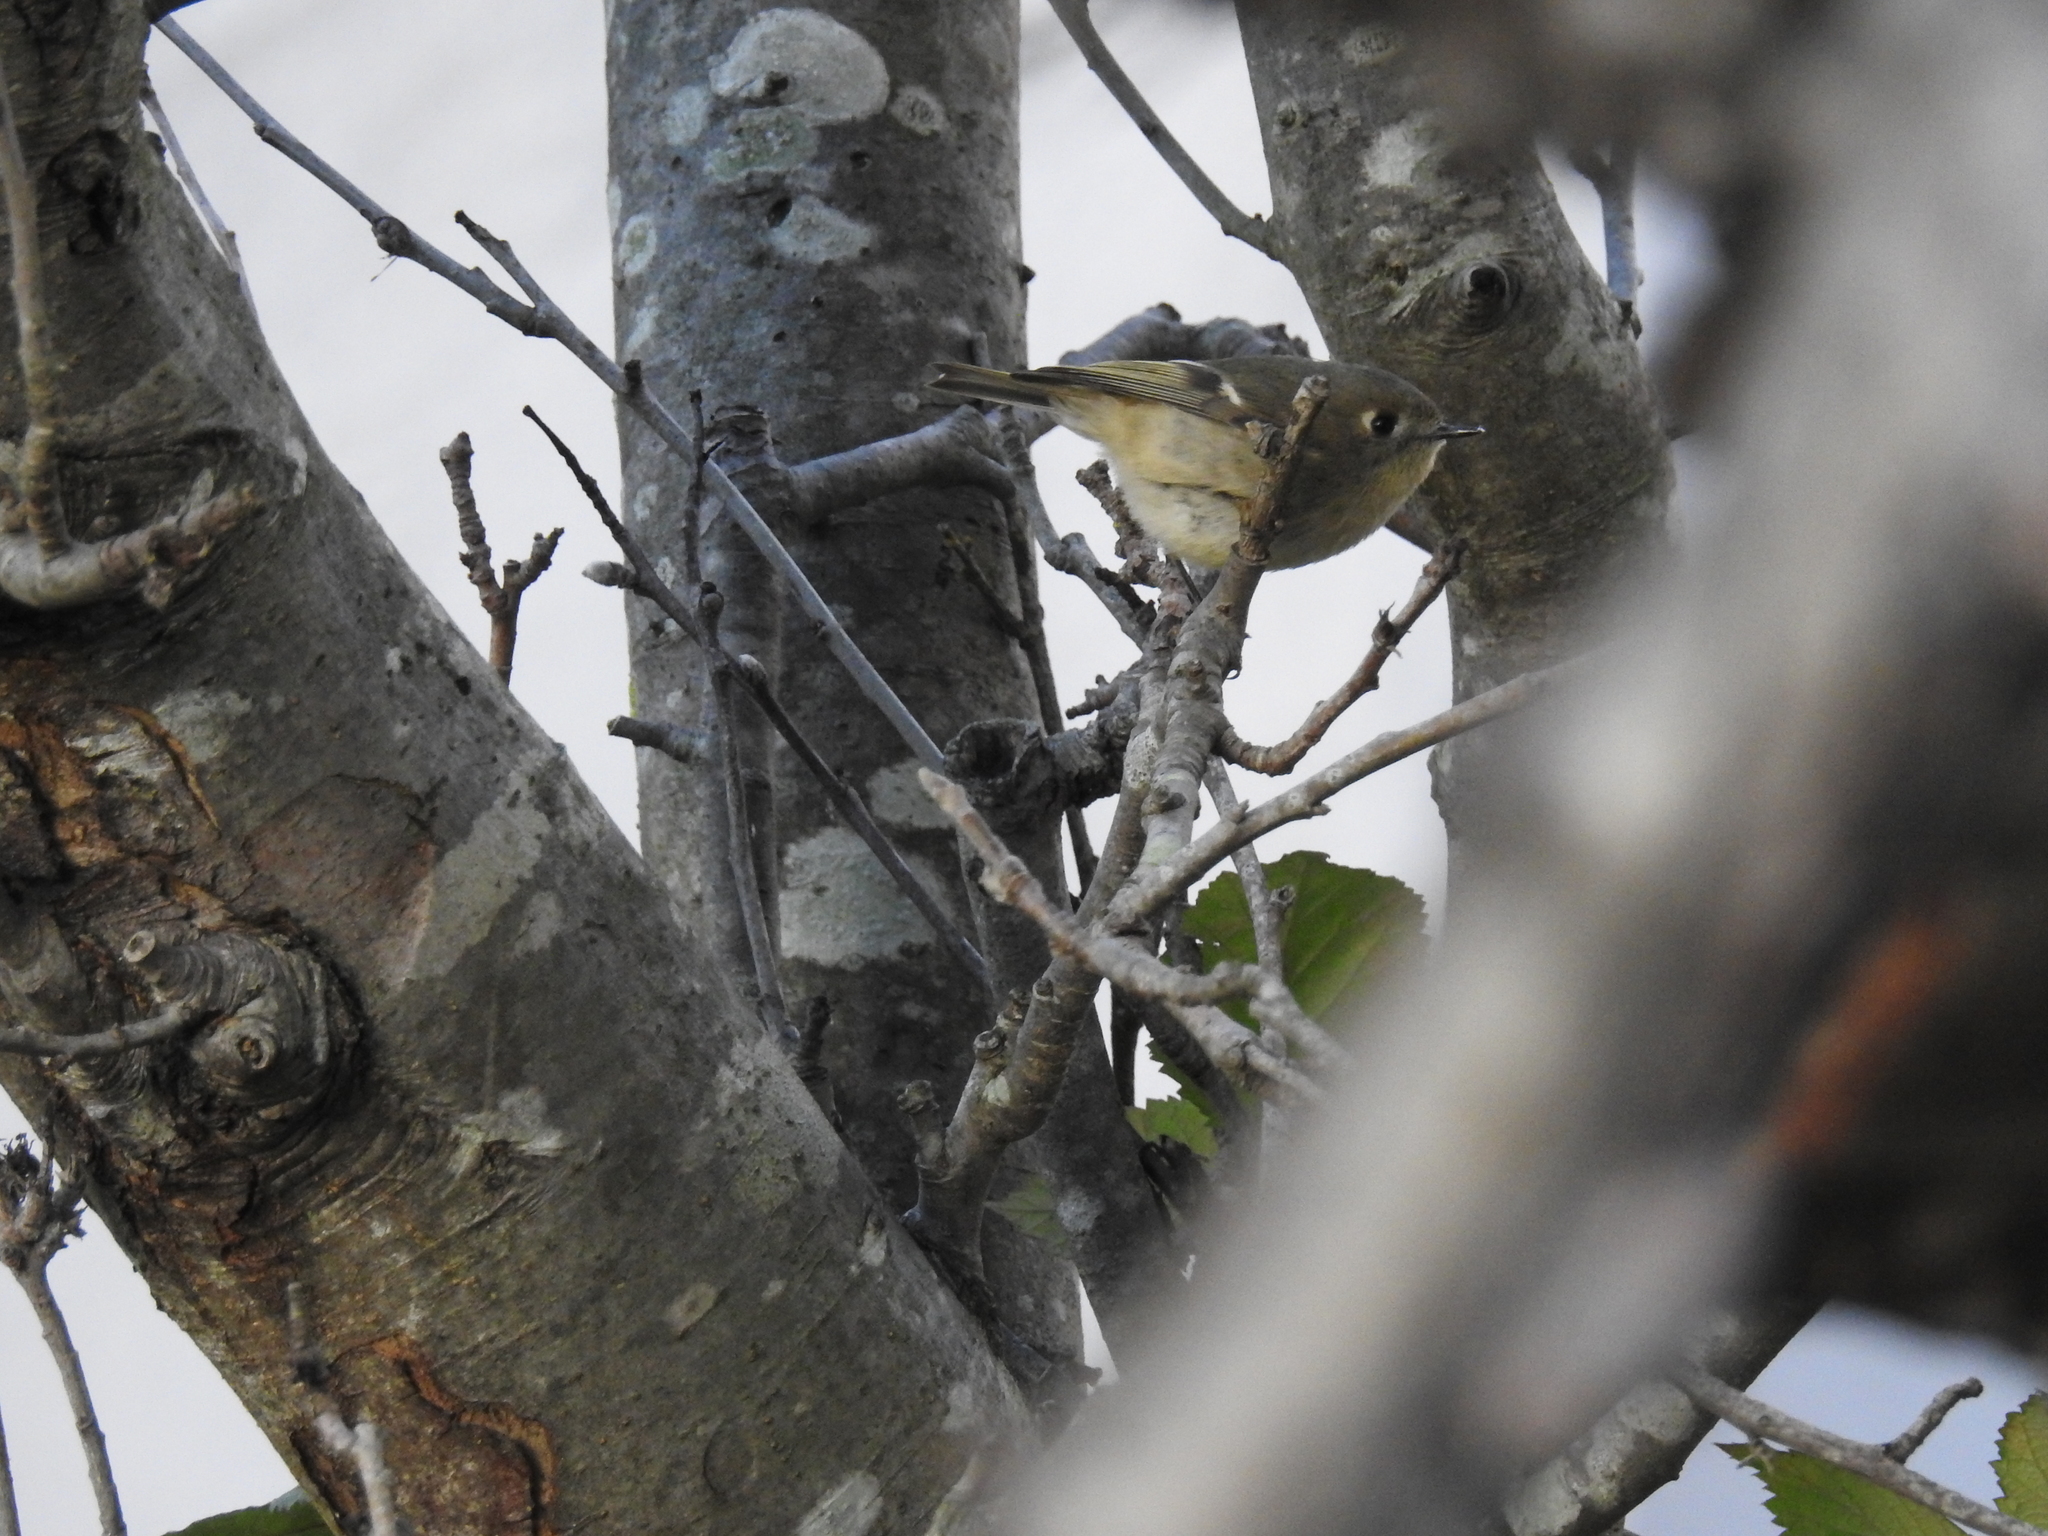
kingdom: Animalia
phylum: Chordata
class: Aves
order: Passeriformes
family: Regulidae
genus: Regulus
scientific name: Regulus calendula
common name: Ruby-crowned kinglet
